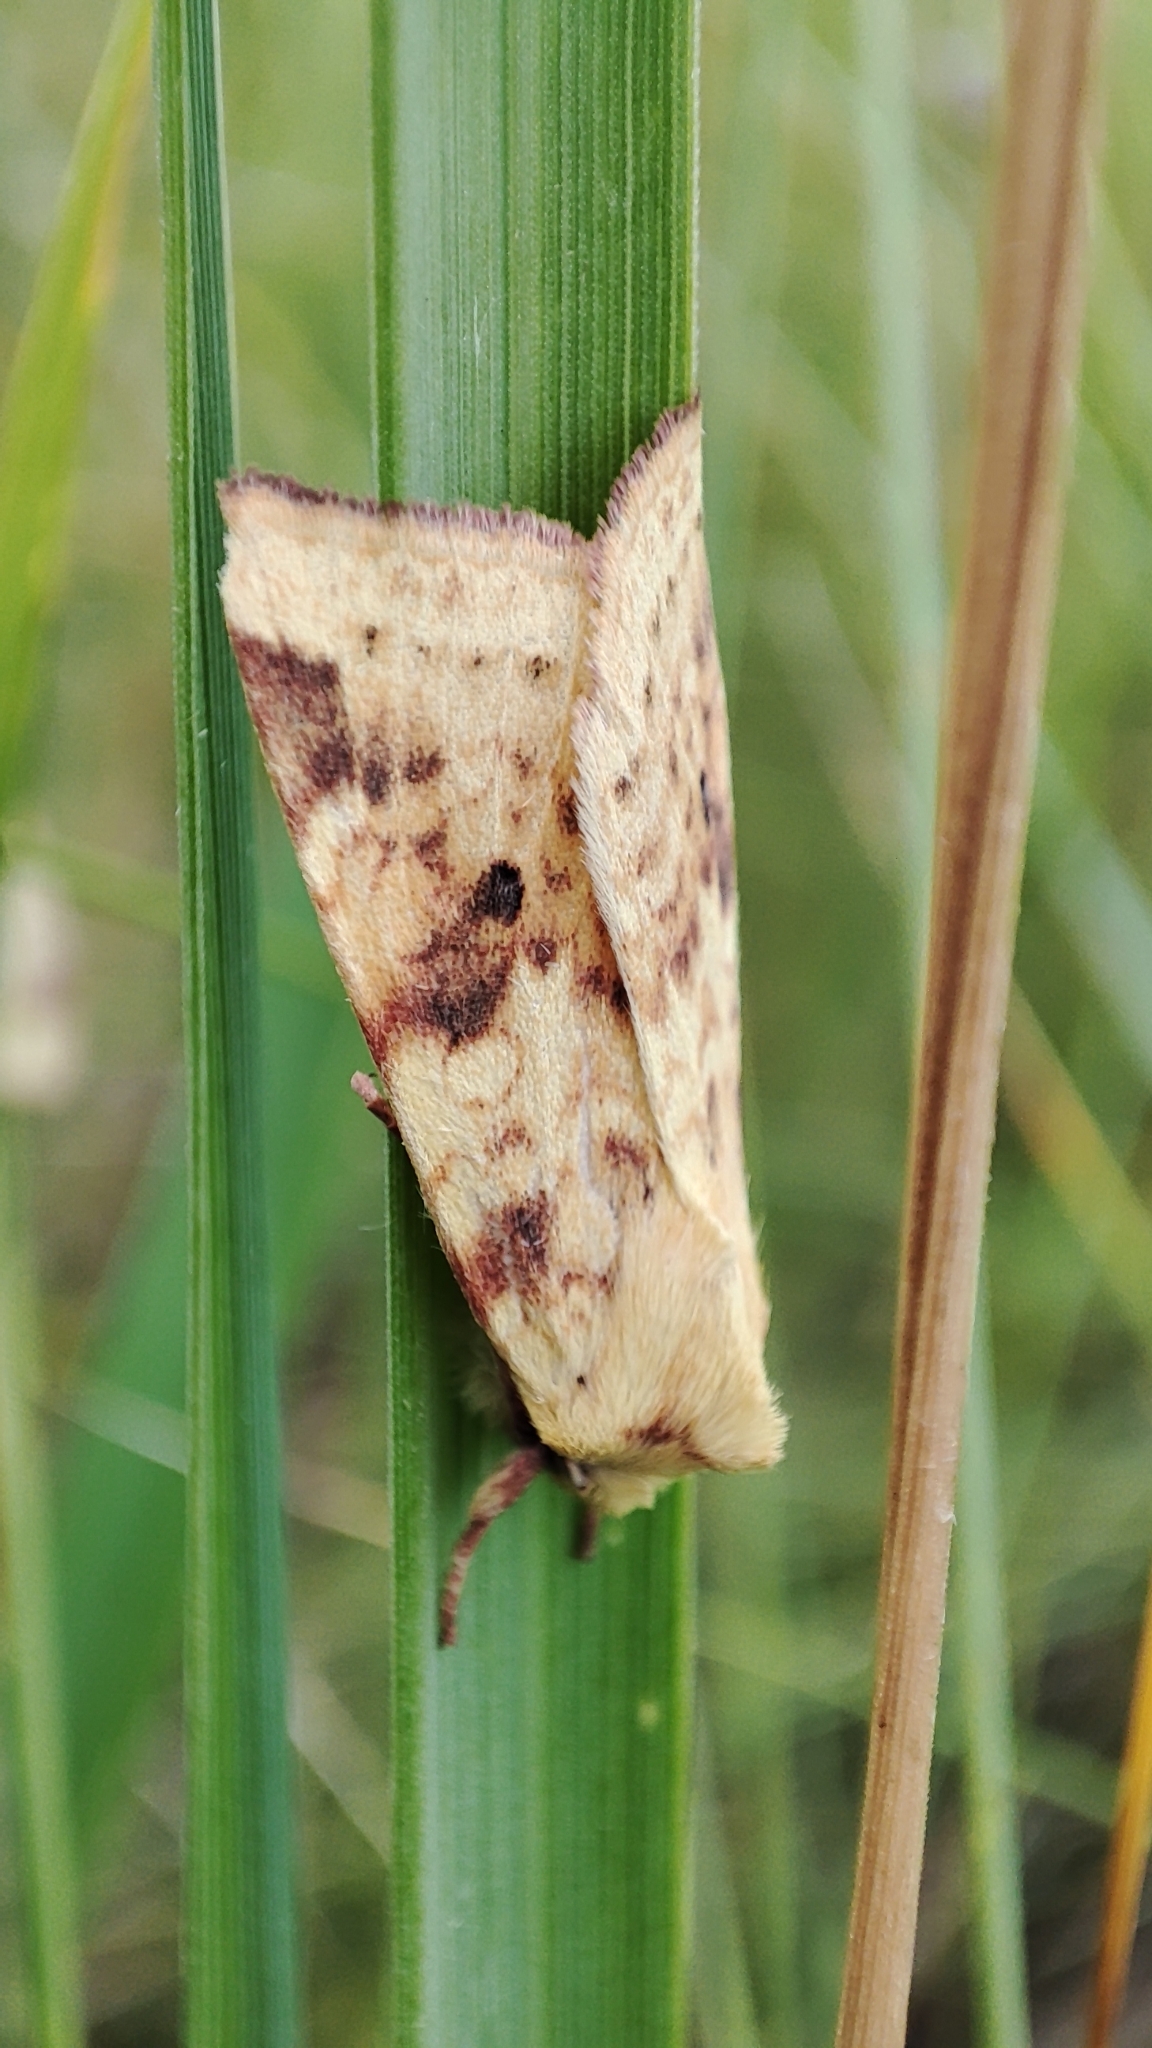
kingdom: Animalia
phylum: Arthropoda
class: Insecta
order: Lepidoptera
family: Noctuidae
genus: Xanthia
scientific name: Xanthia icteritia
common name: The sallow
